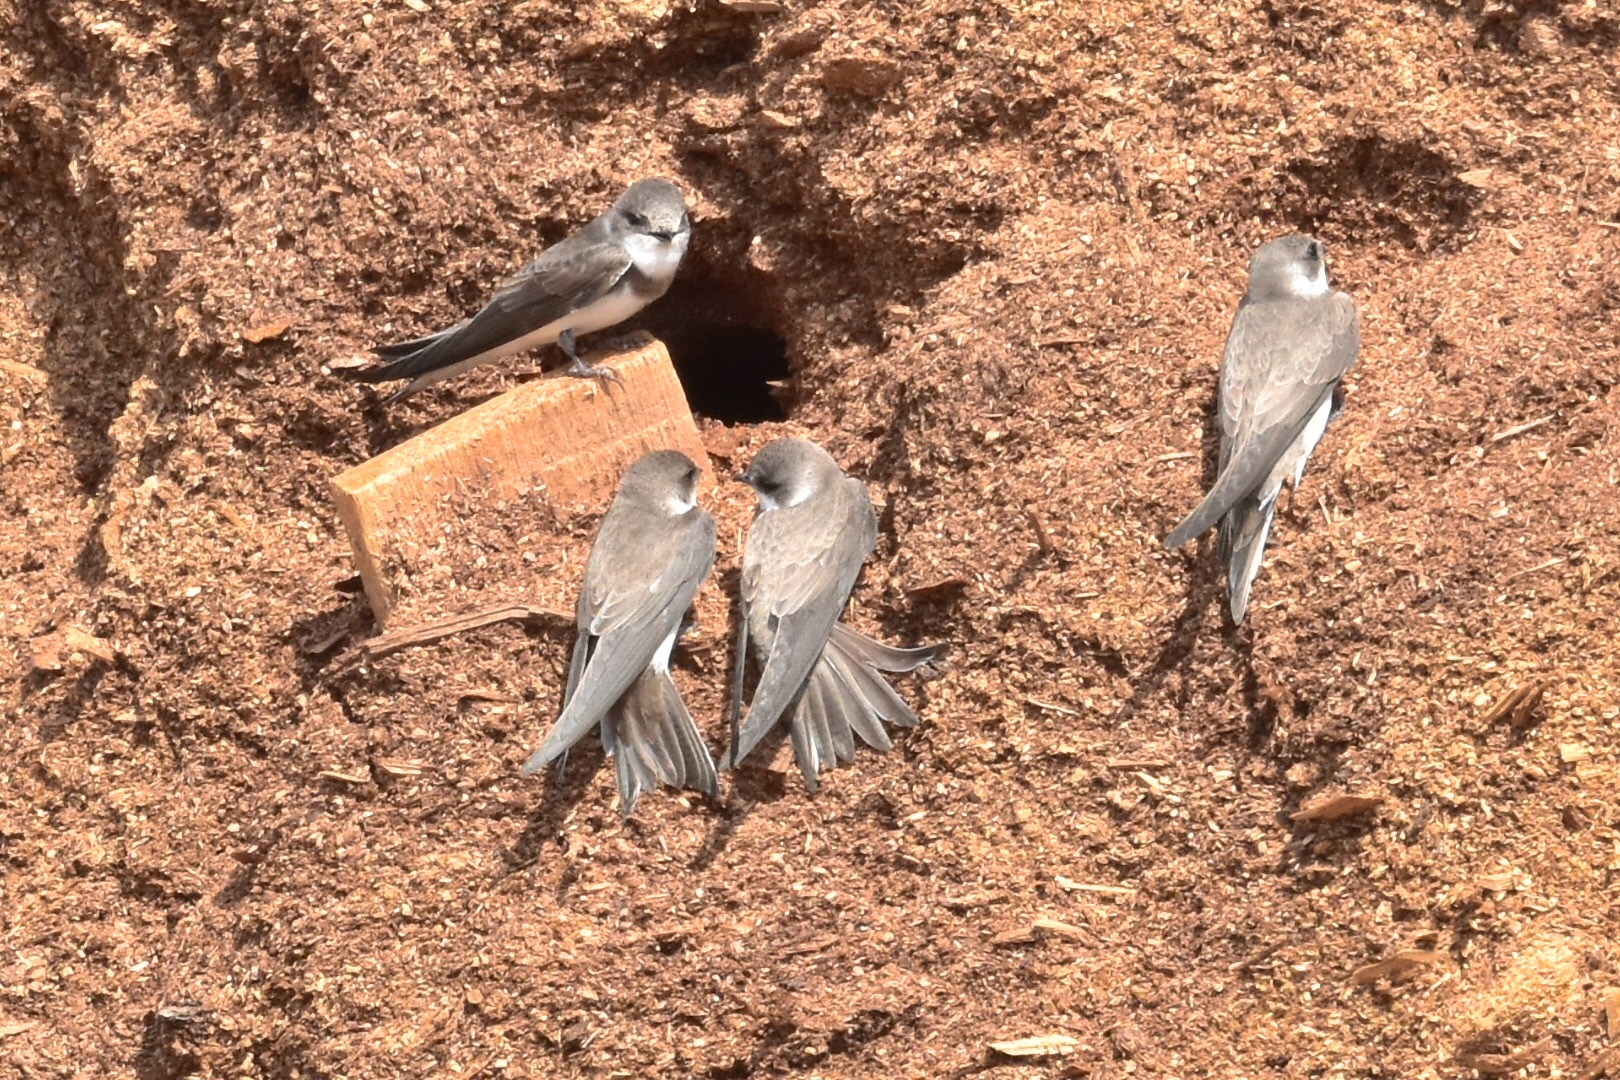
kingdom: Animalia
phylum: Chordata
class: Aves
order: Passeriformes
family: Hirundinidae
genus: Riparia
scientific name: Riparia riparia
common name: Sand martin
